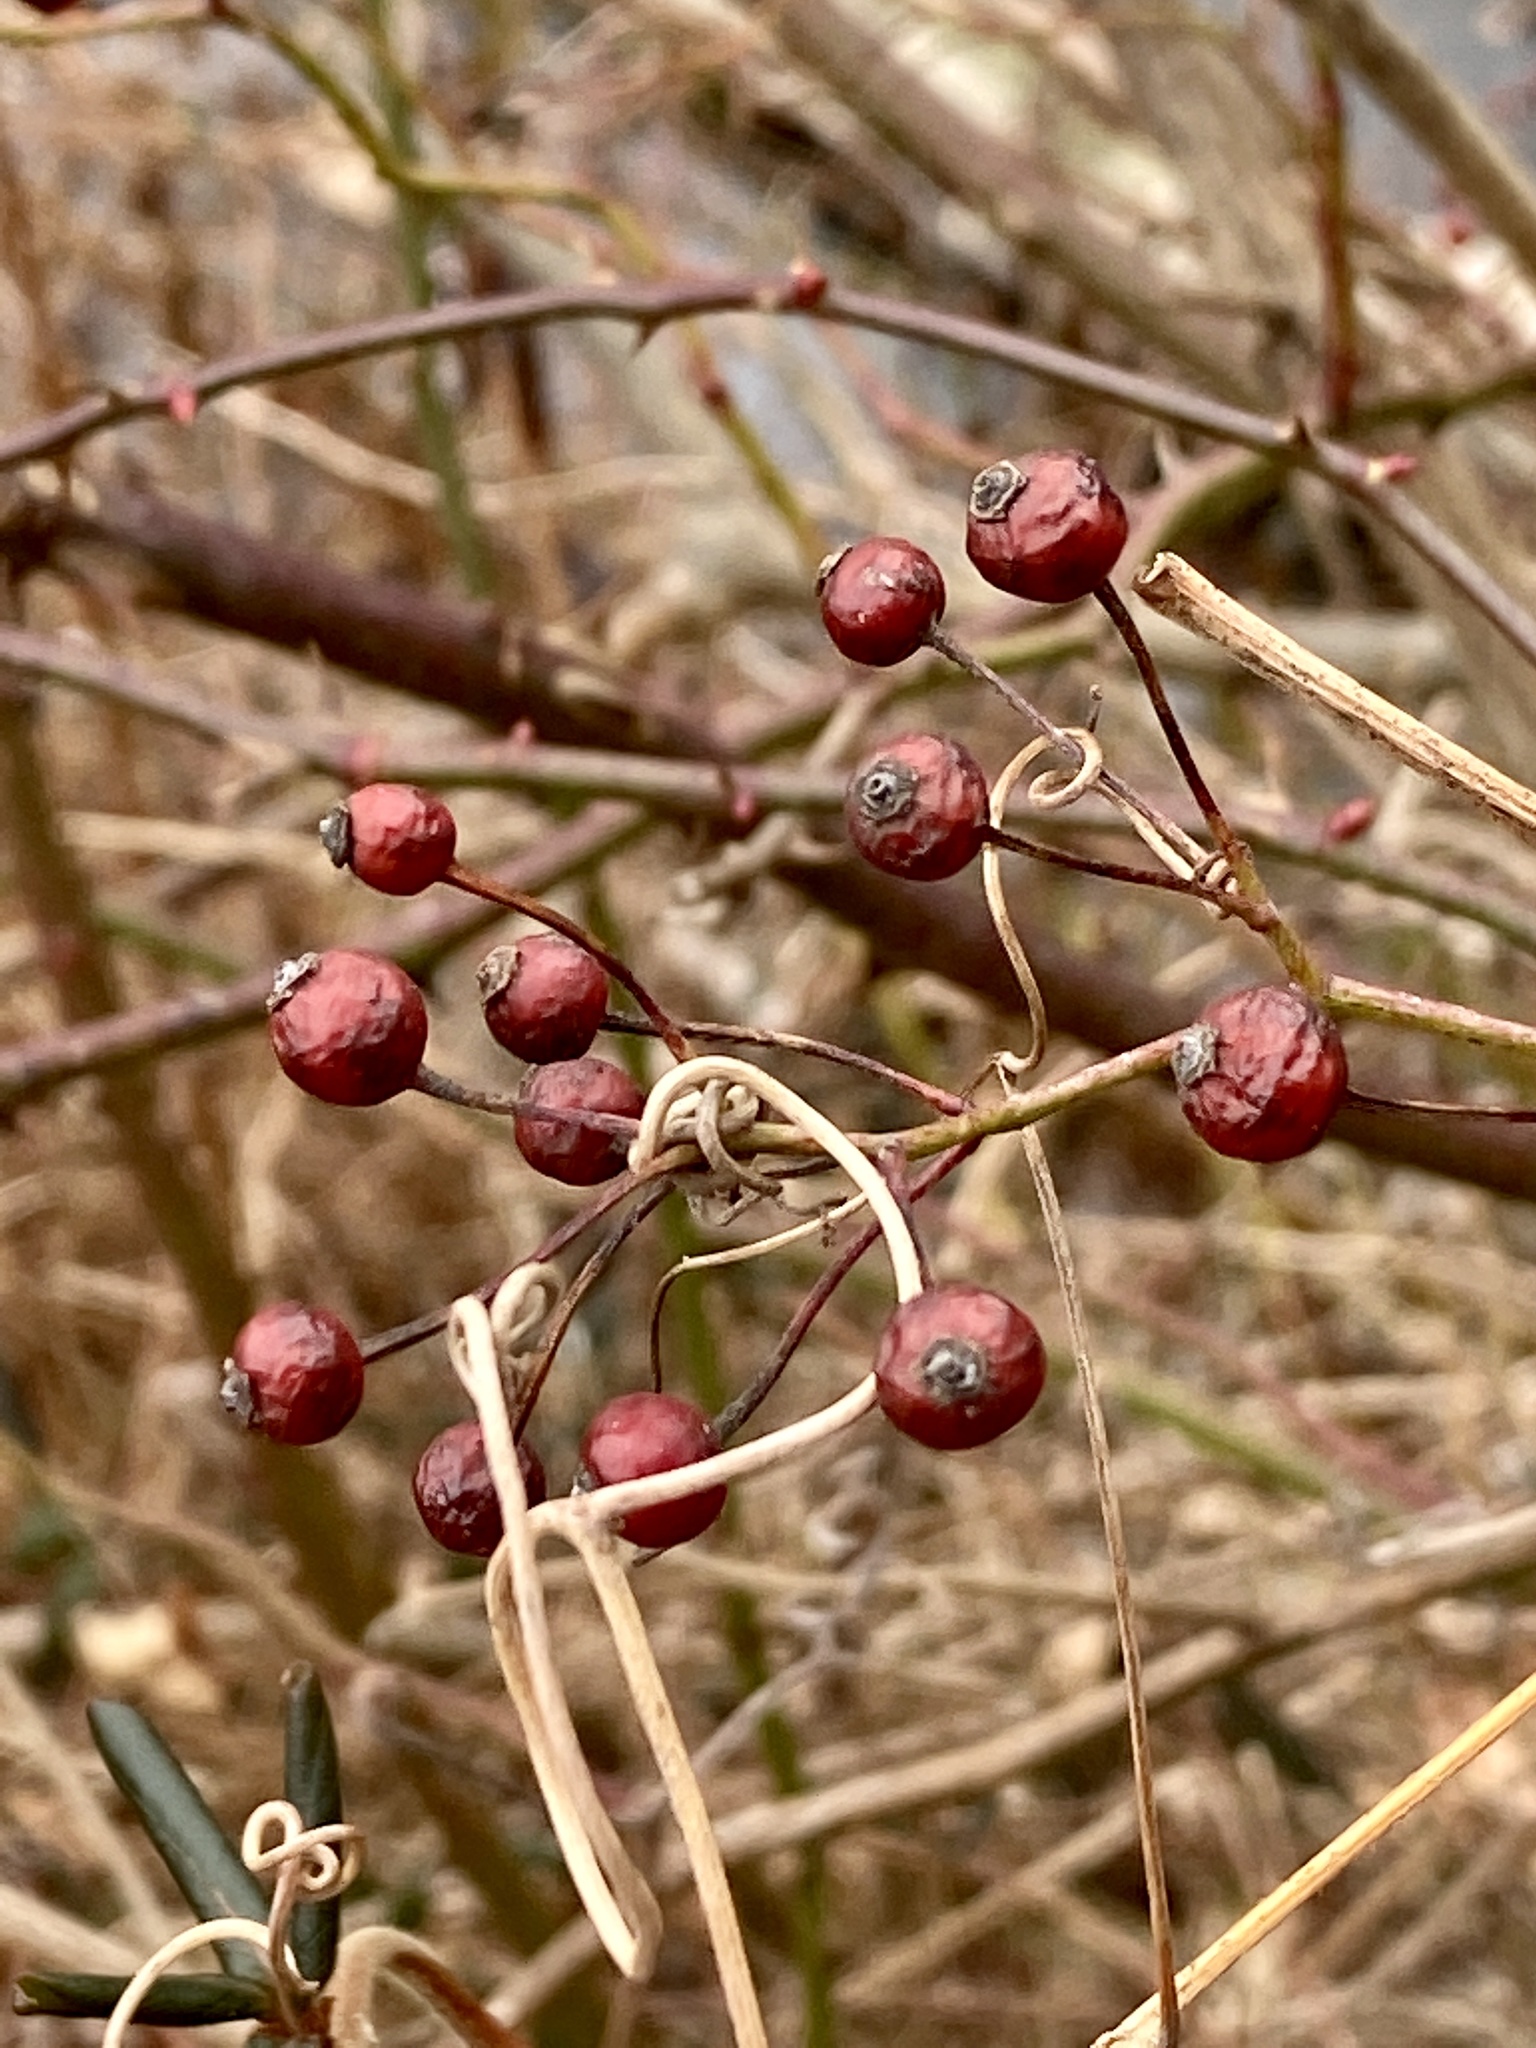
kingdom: Plantae
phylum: Tracheophyta
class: Magnoliopsida
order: Rosales
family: Rosaceae
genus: Rosa
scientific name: Rosa multiflora
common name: Multiflora rose
